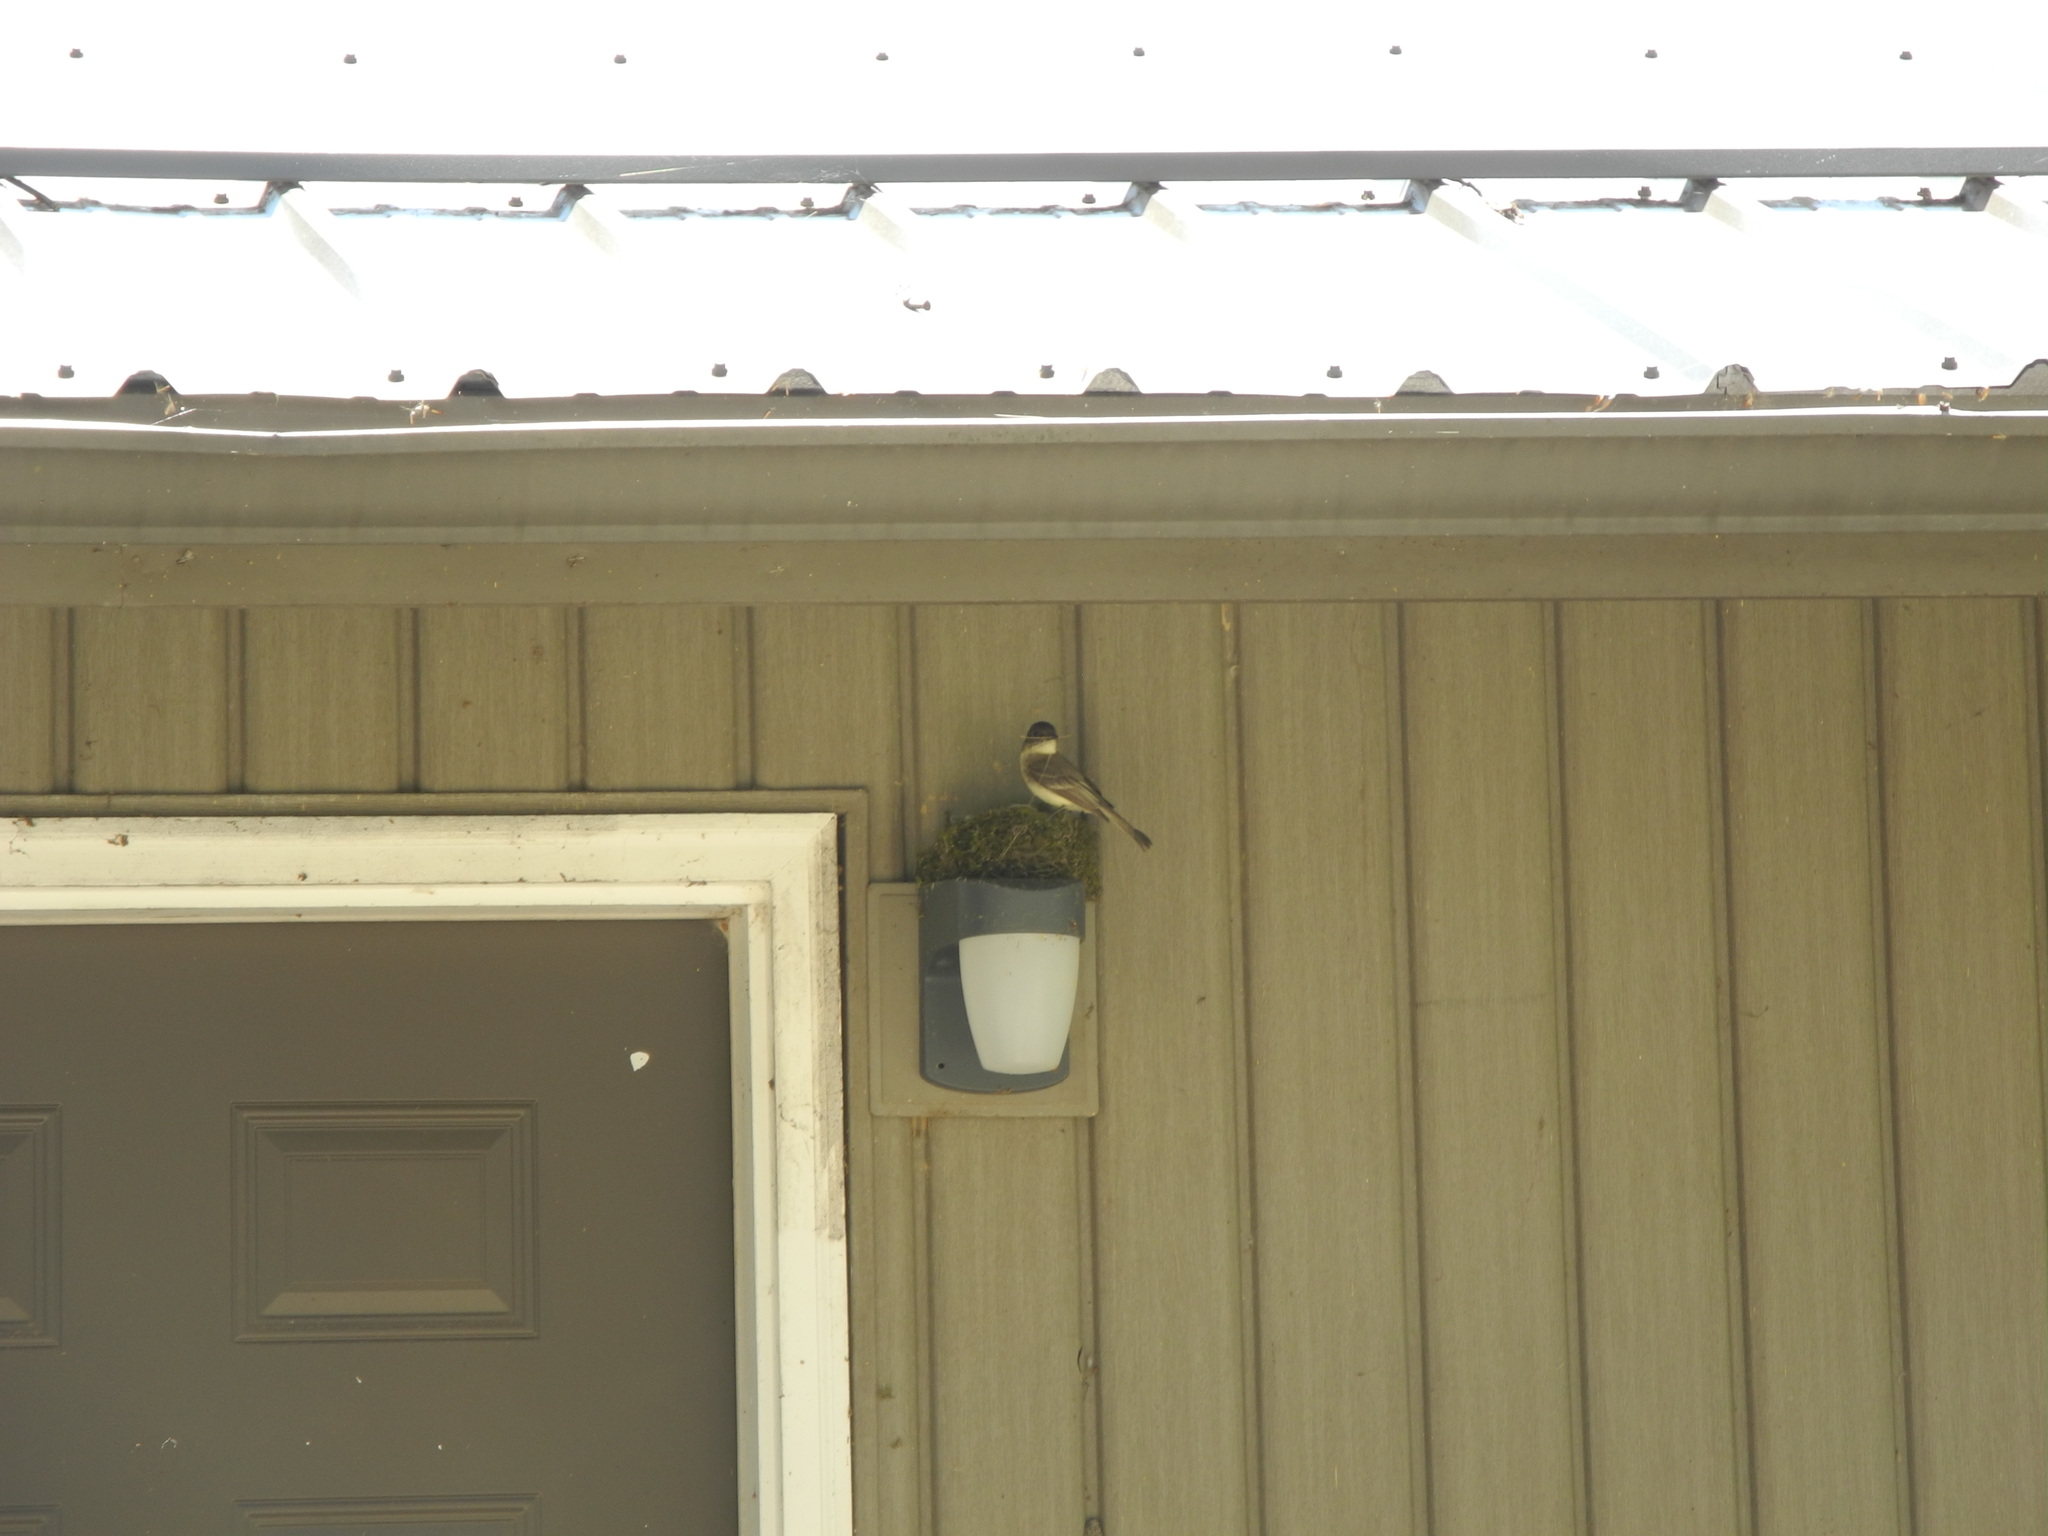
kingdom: Animalia
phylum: Chordata
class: Aves
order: Passeriformes
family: Tyrannidae
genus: Sayornis
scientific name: Sayornis phoebe
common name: Eastern phoebe
